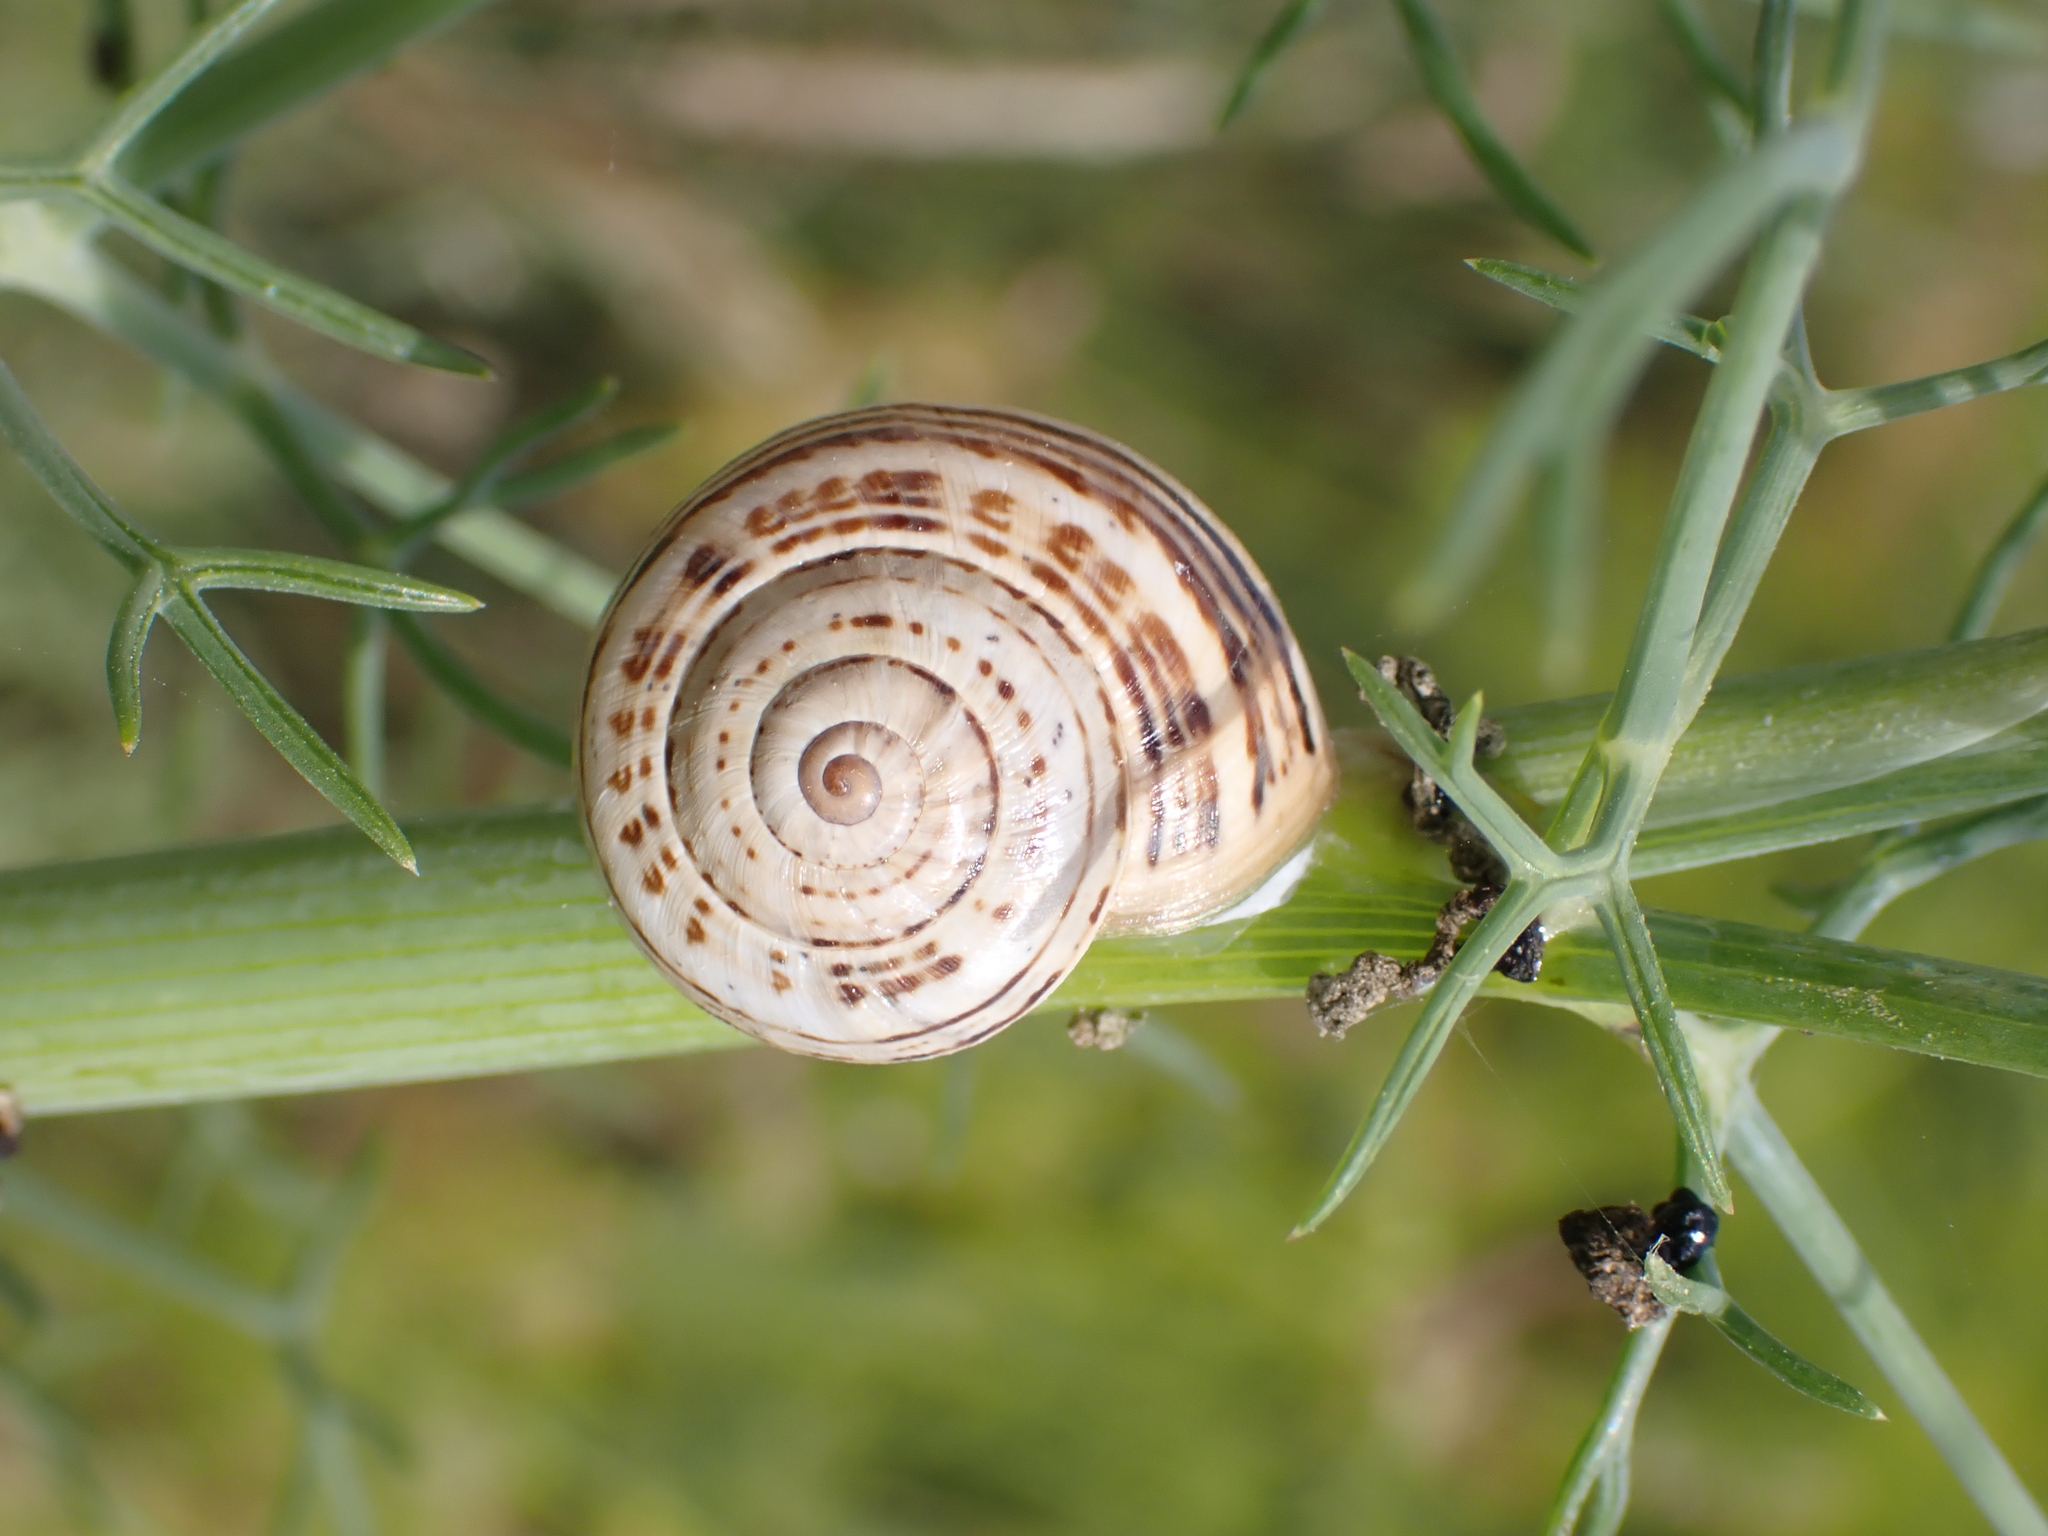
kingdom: Animalia
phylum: Mollusca
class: Gastropoda
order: Stylommatophora
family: Helicidae
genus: Theba
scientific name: Theba pisana
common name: White snail
